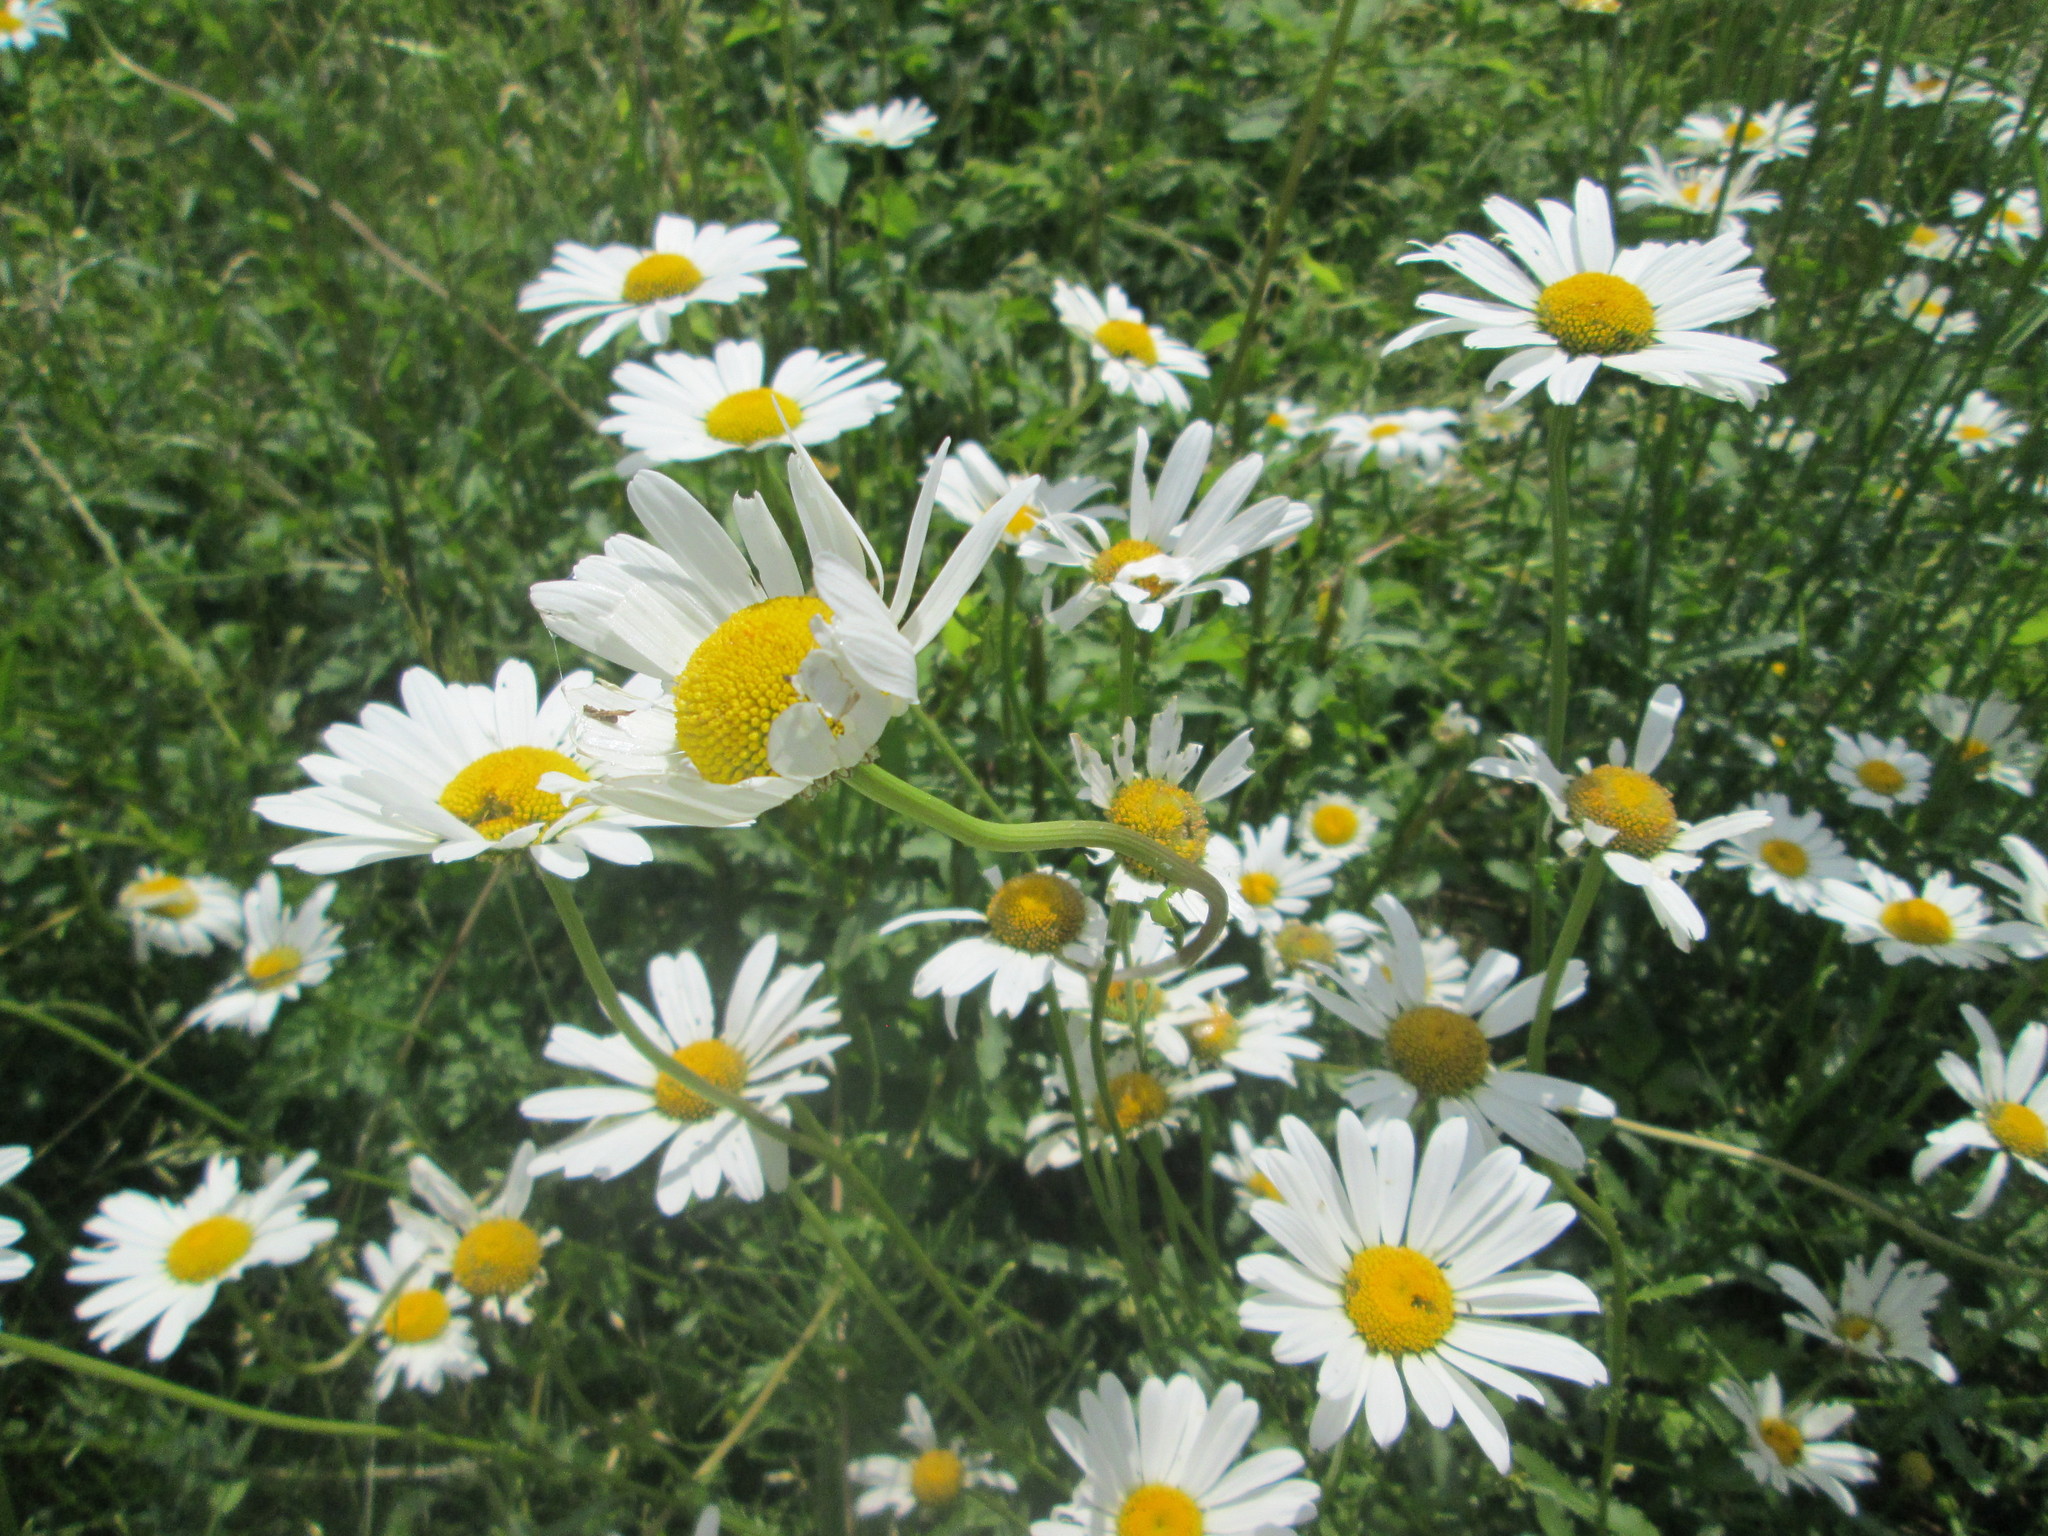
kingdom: Plantae
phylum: Tracheophyta
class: Magnoliopsida
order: Asterales
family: Asteraceae
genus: Leucanthemum
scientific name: Leucanthemum vulgare
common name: Oxeye daisy
